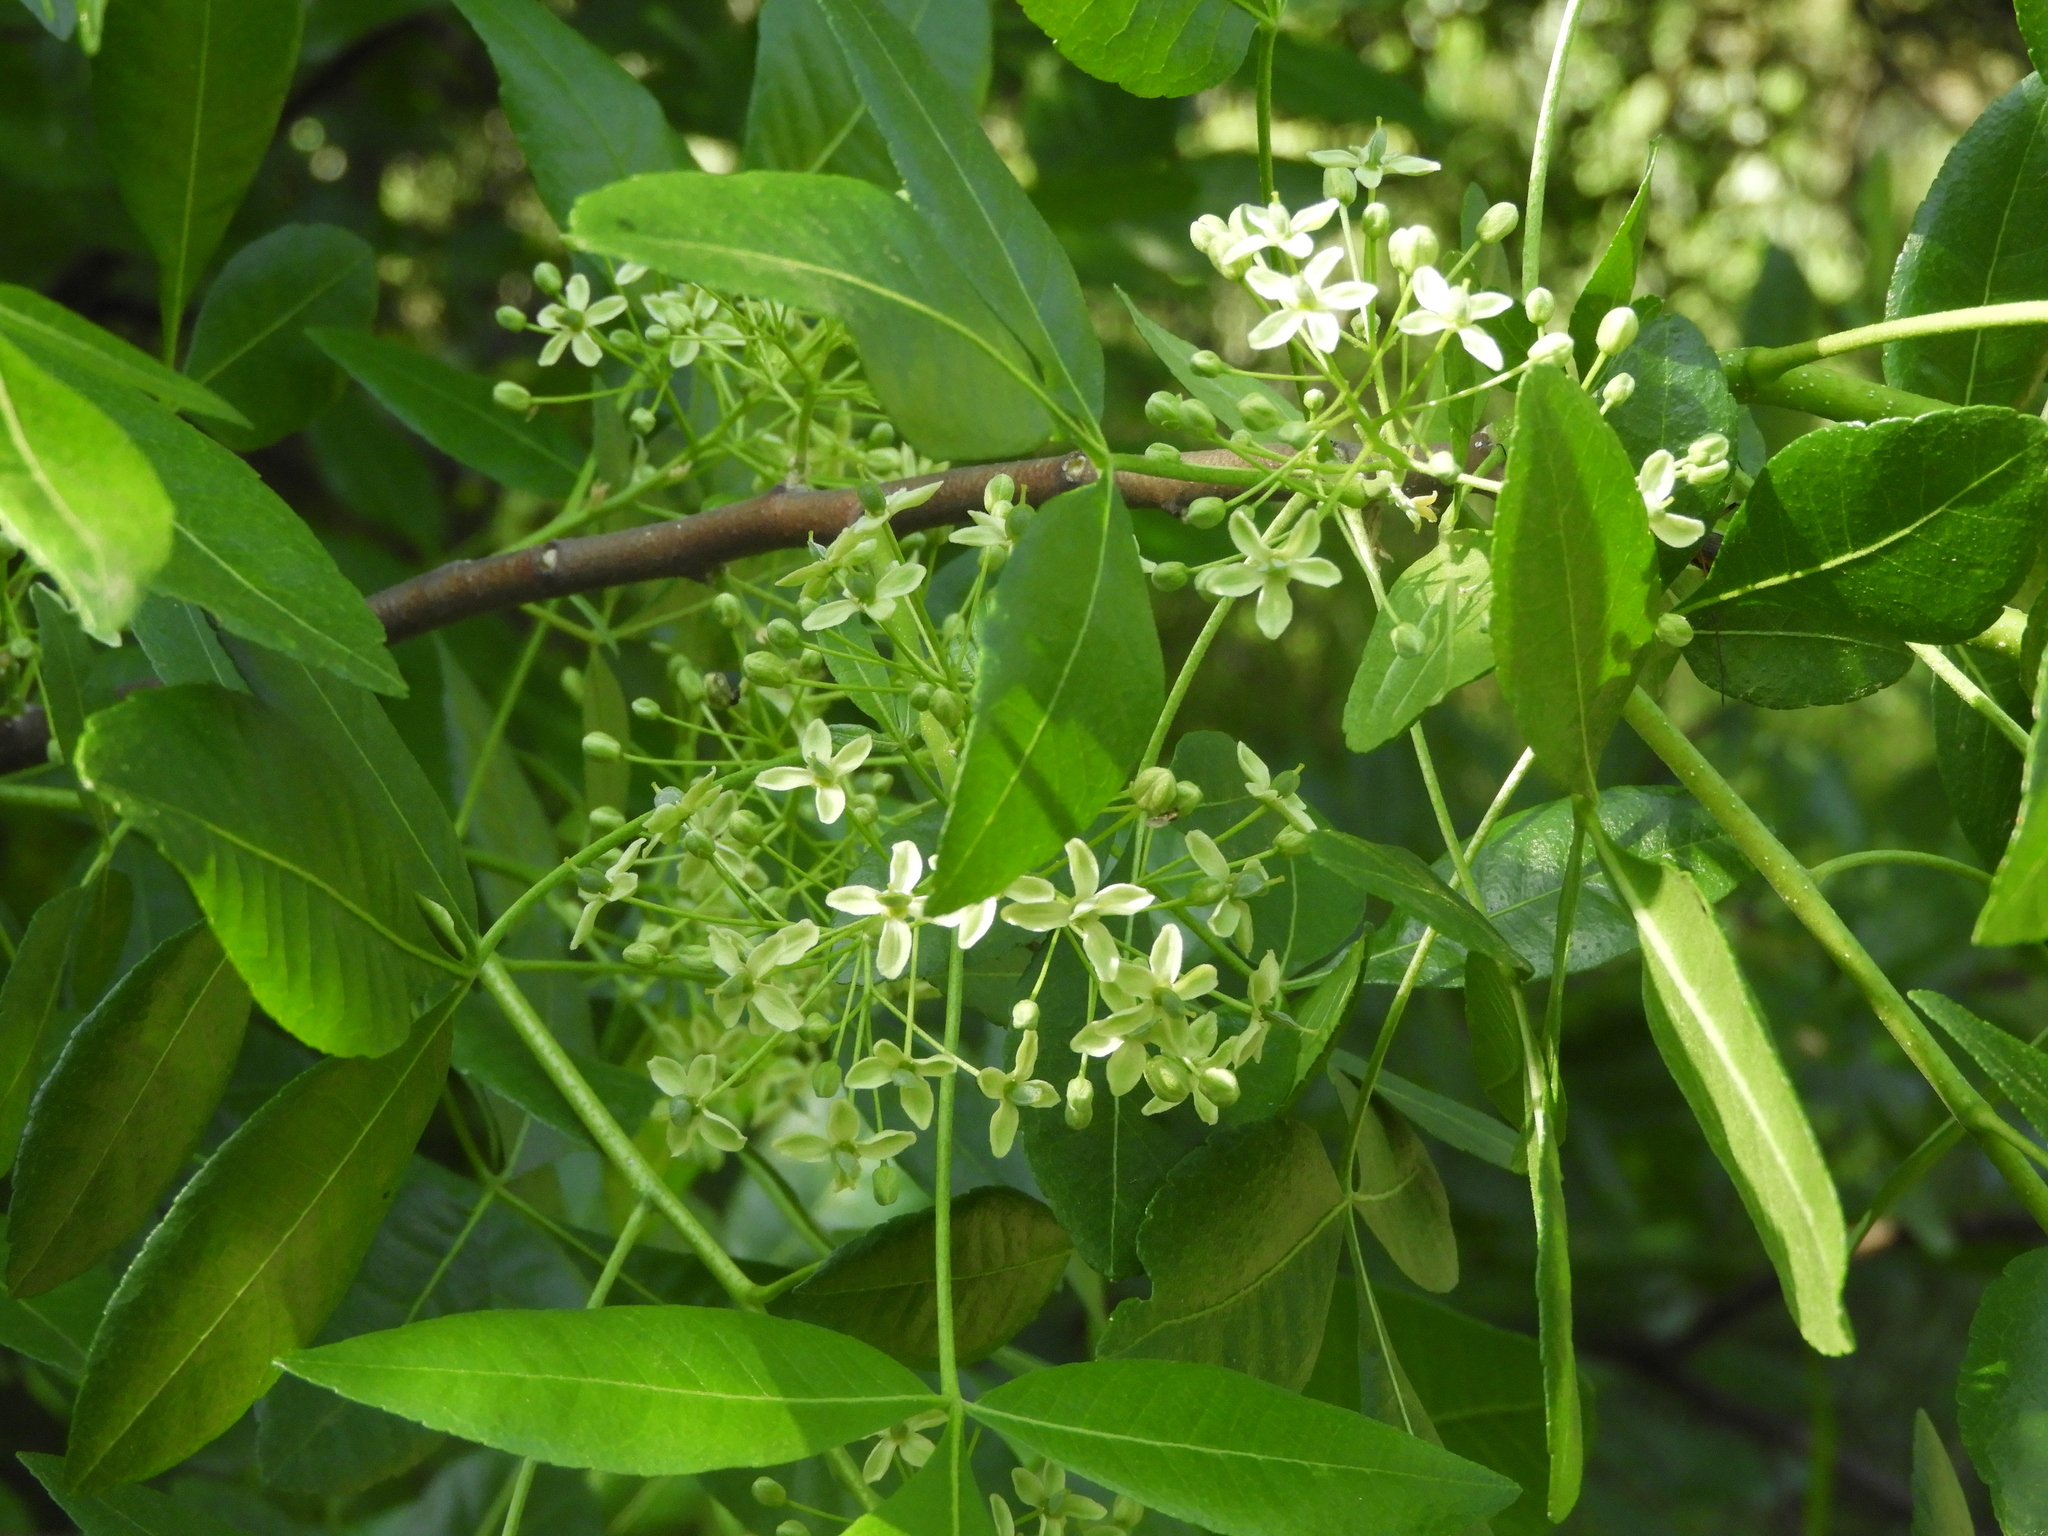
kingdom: Plantae
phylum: Tracheophyta
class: Magnoliopsida
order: Sapindales
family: Rutaceae
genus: Ptelea
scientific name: Ptelea crenulata
